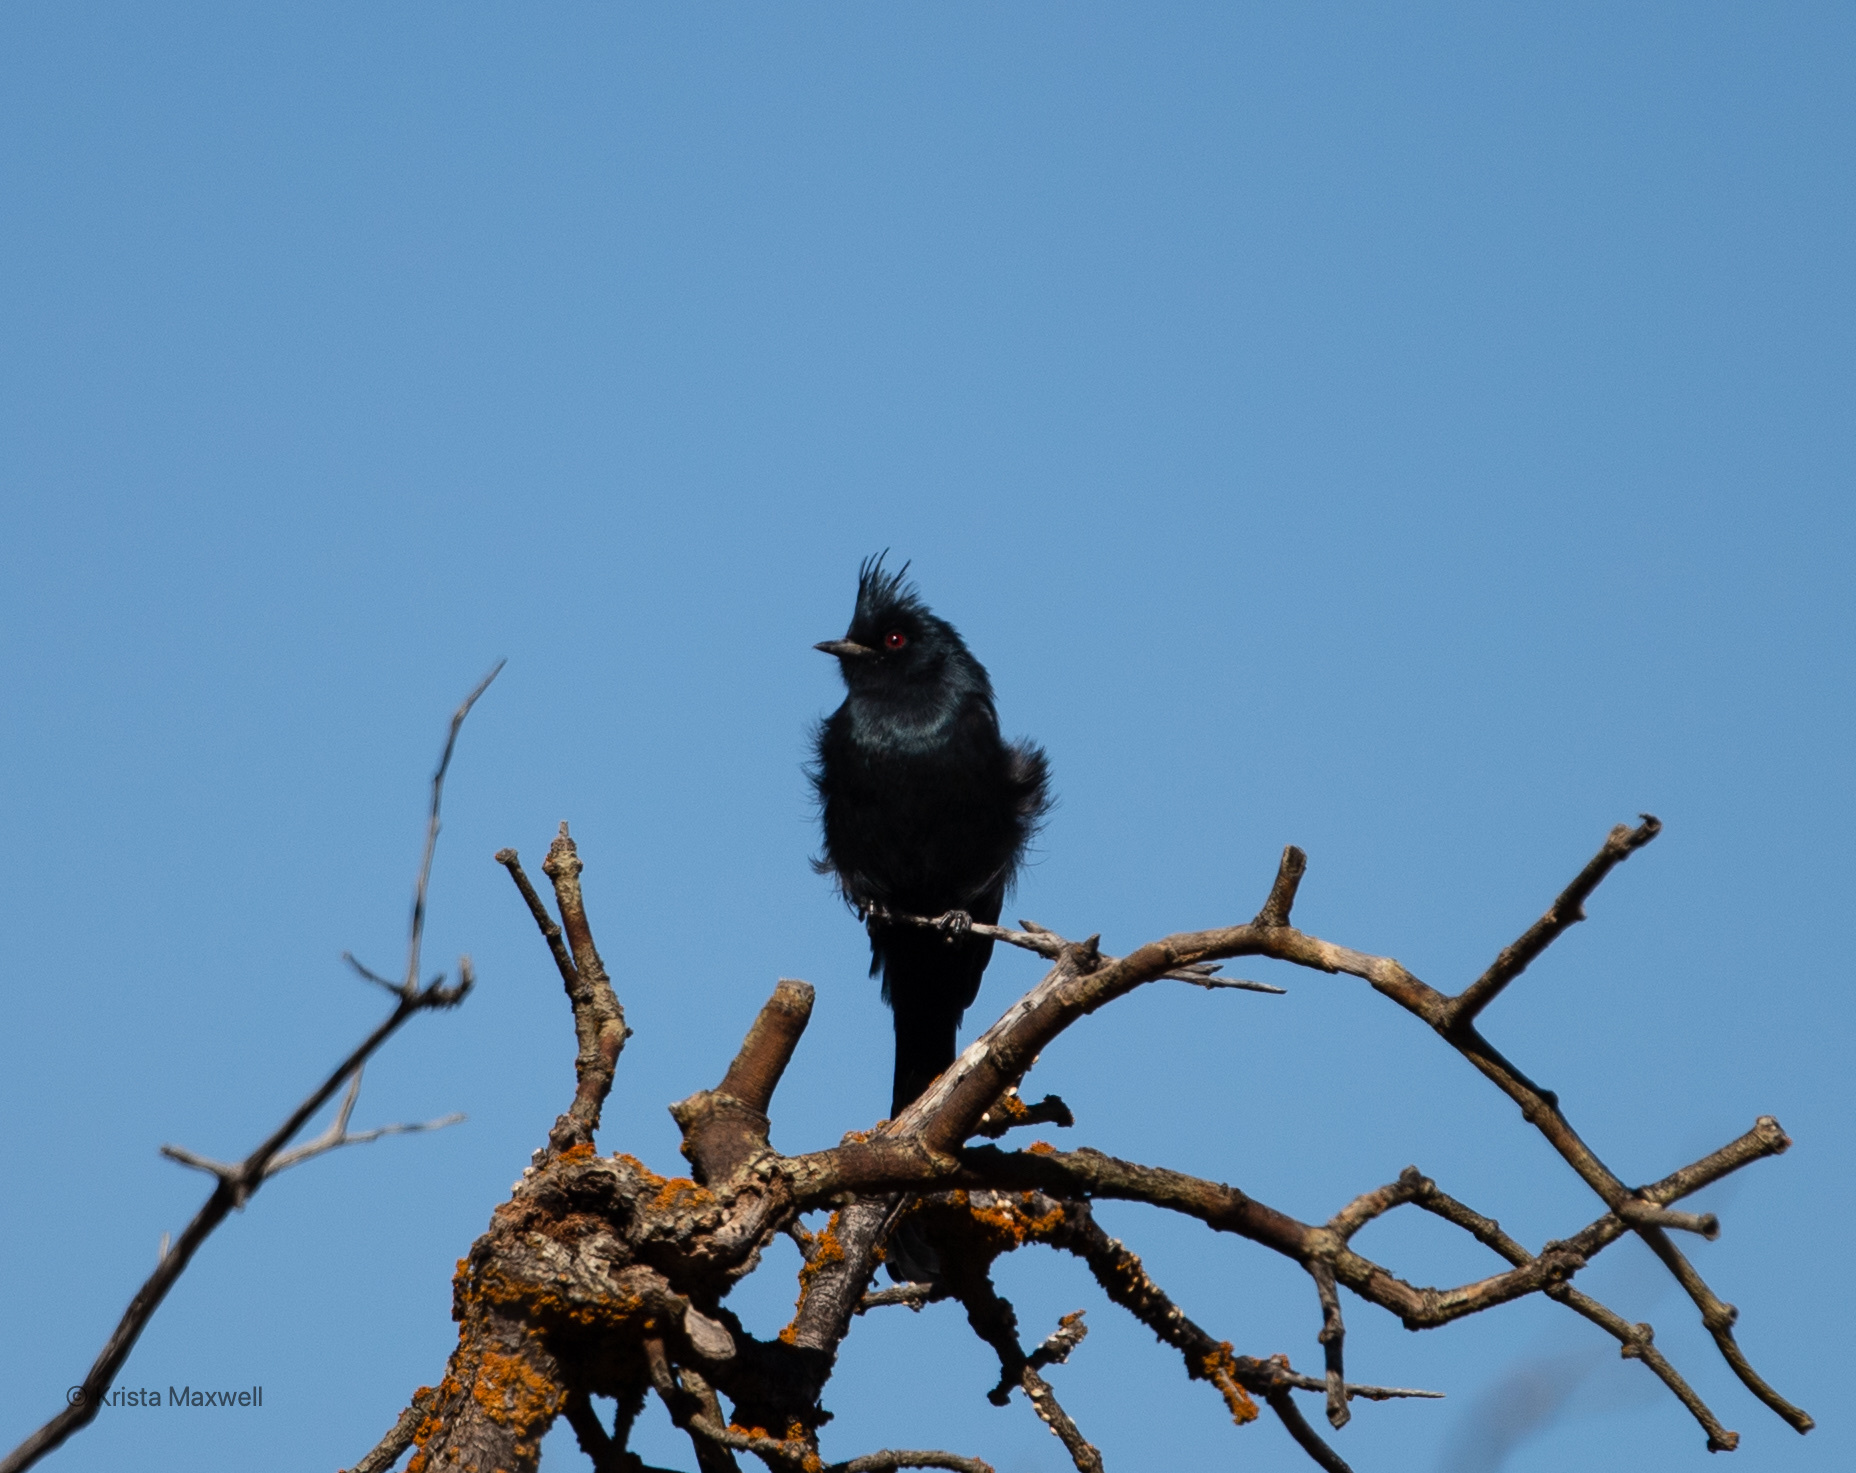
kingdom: Animalia
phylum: Chordata
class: Aves
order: Passeriformes
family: Ptilogonatidae
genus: Phainopepla
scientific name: Phainopepla nitens
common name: Phainopepla
